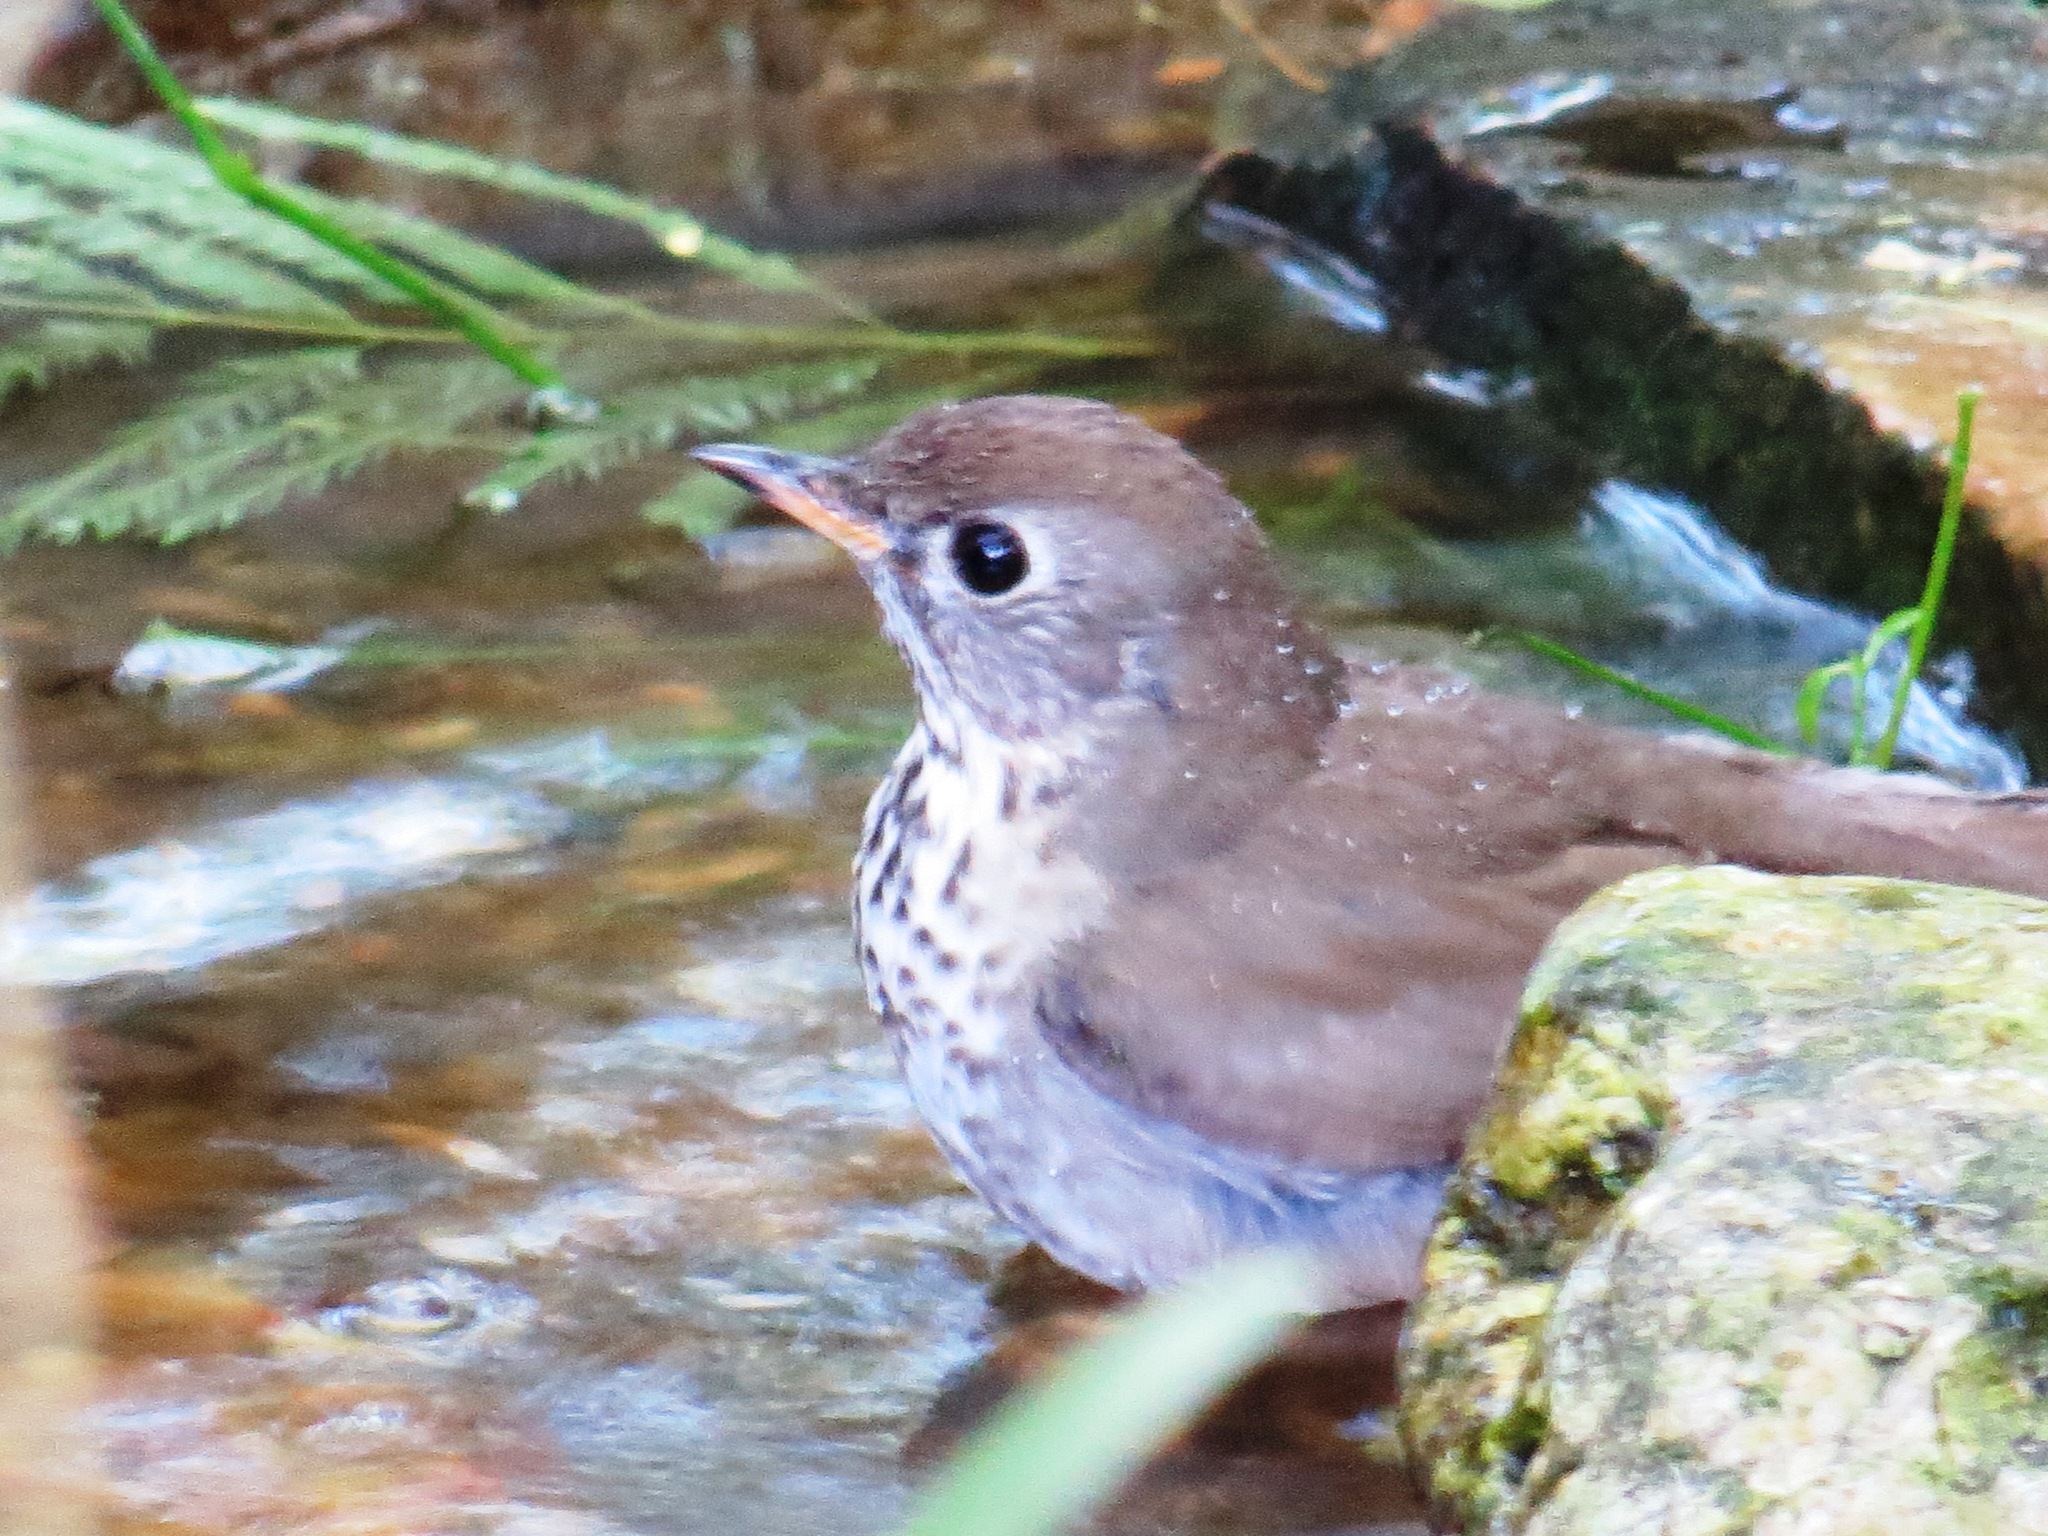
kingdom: Animalia
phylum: Chordata
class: Aves
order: Passeriformes
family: Turdidae
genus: Catharus
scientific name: Catharus minimus
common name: Grey-cheeked thrush
